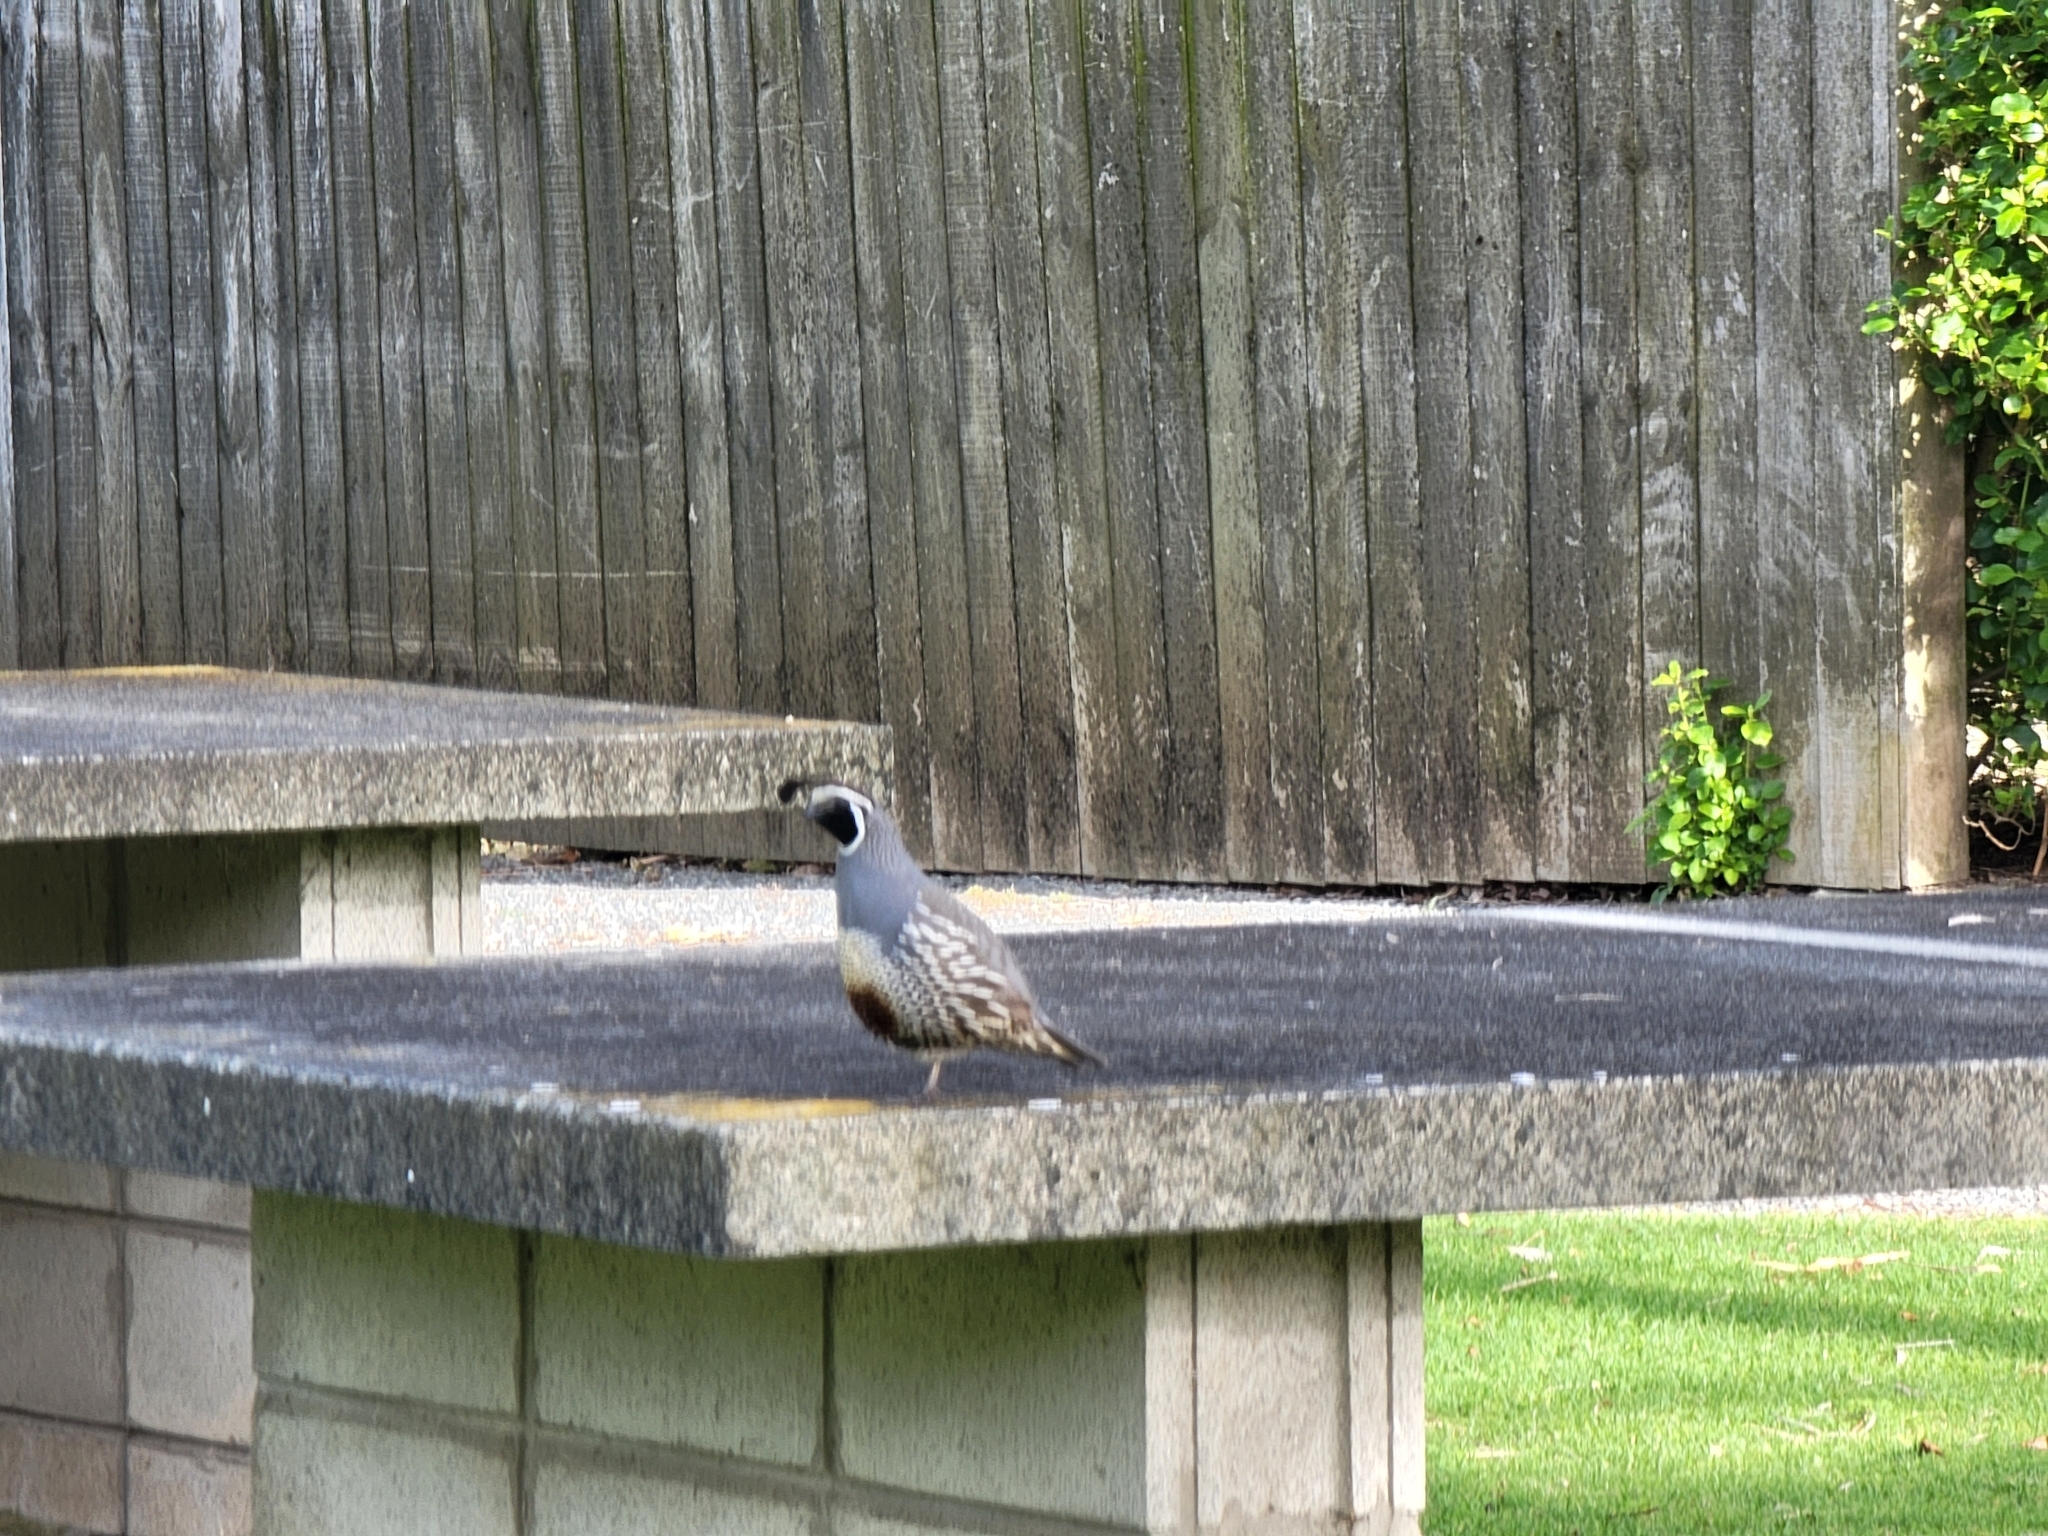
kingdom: Animalia
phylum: Chordata
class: Aves
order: Galliformes
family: Odontophoridae
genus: Callipepla
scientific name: Callipepla californica
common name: California quail
